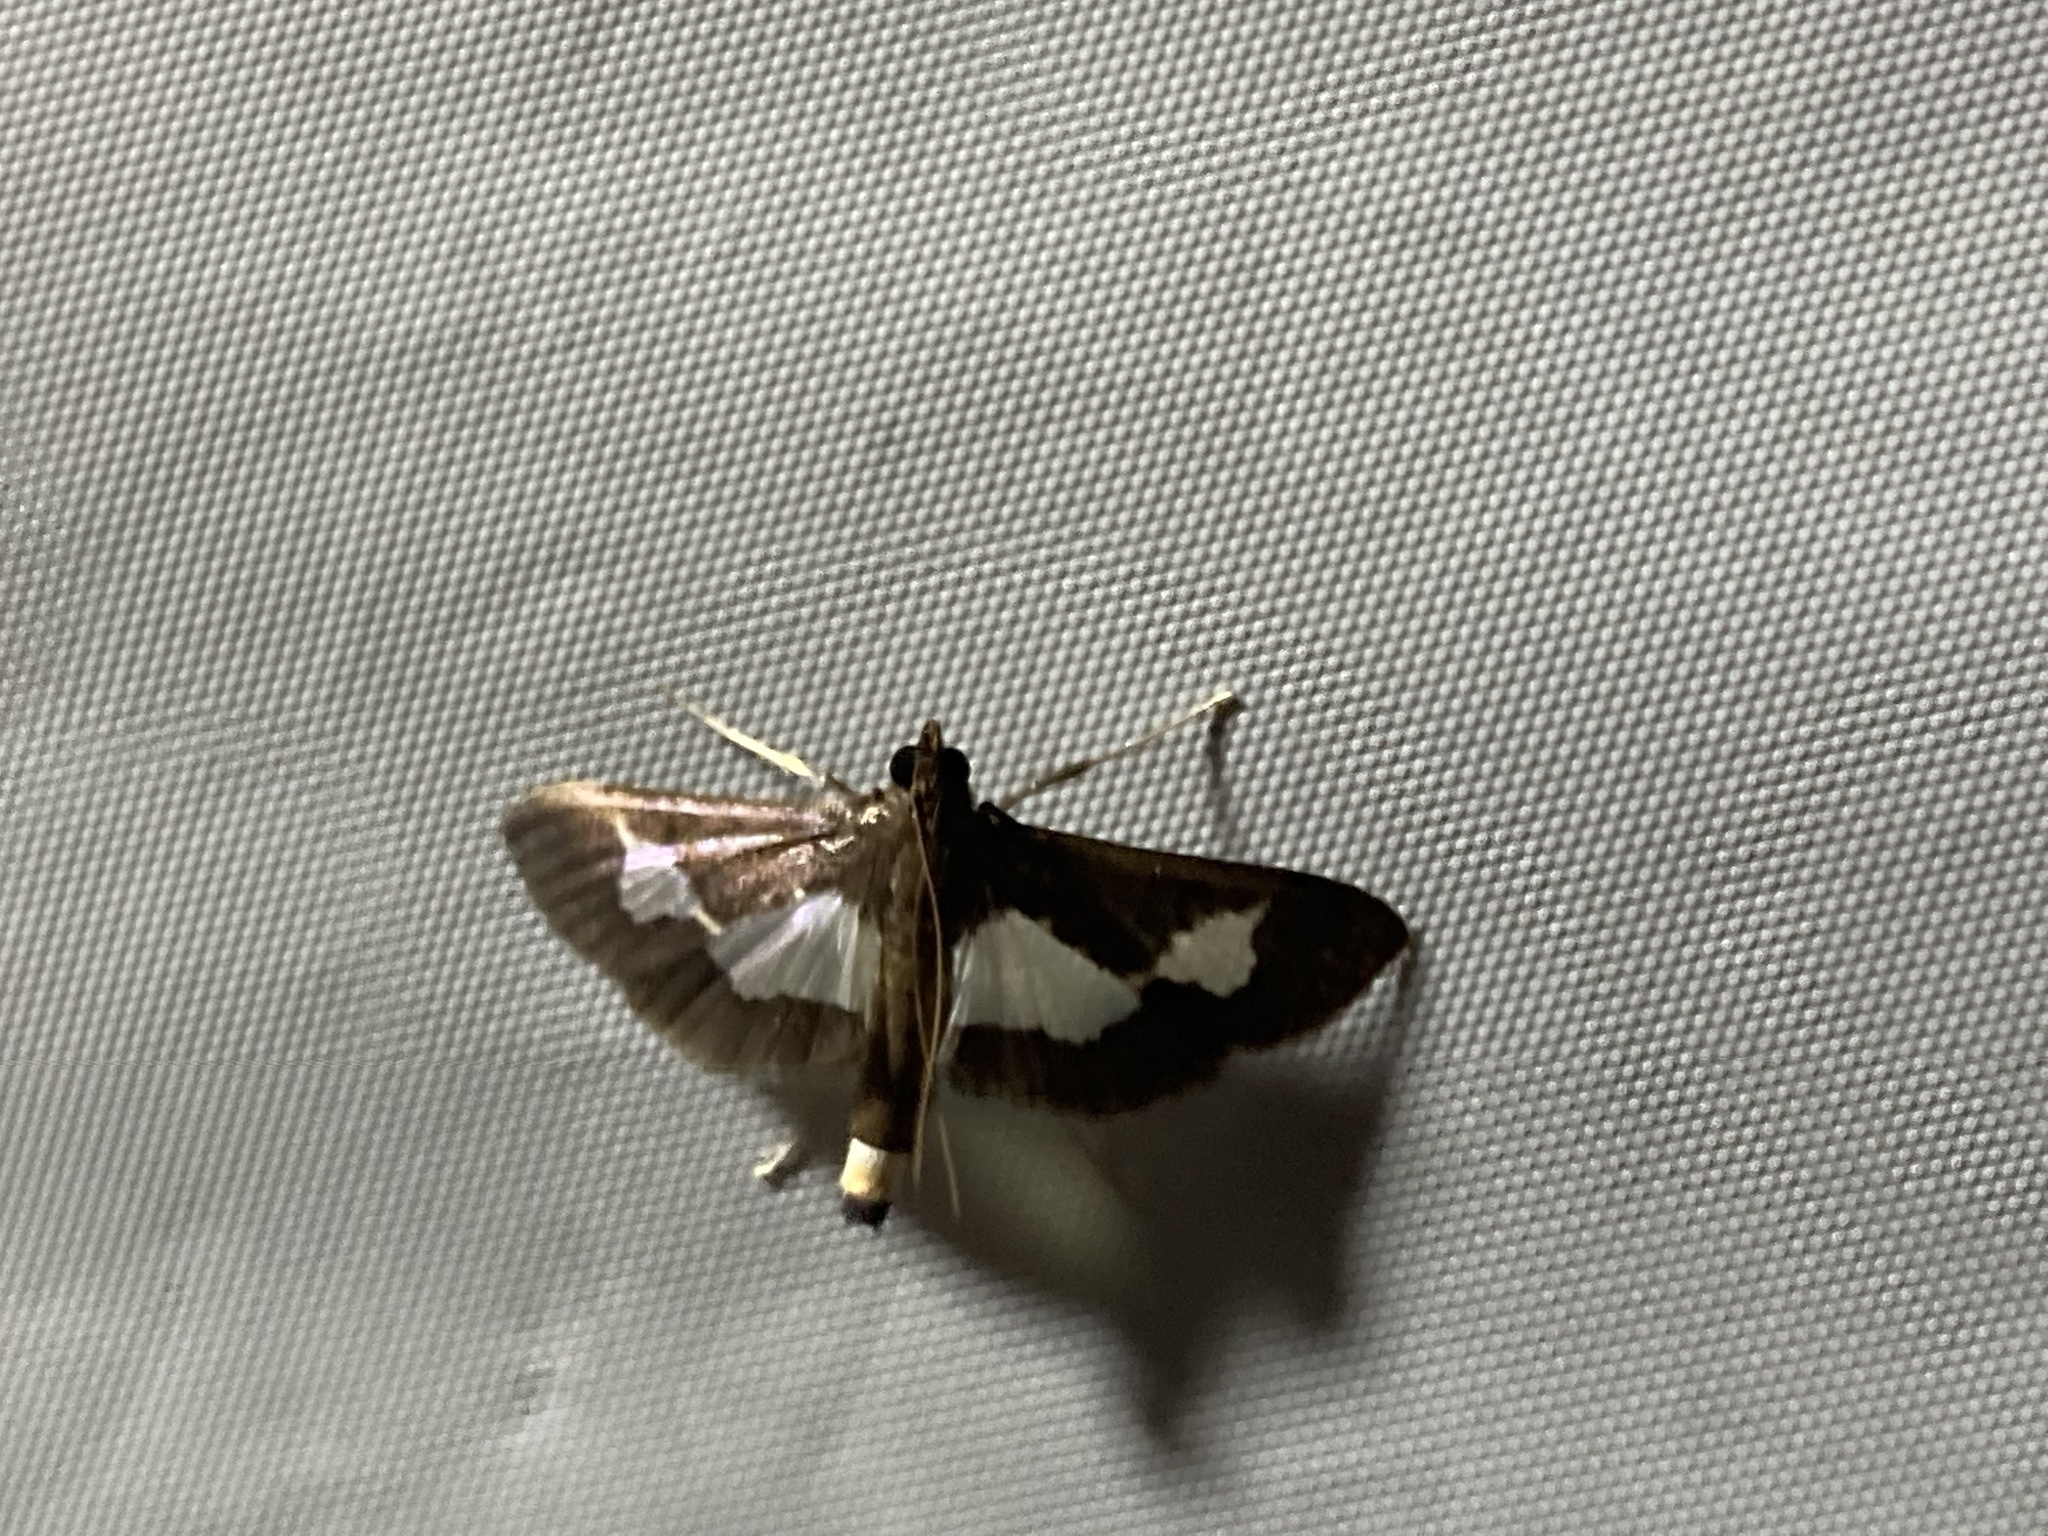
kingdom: Animalia
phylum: Arthropoda
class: Insecta
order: Lepidoptera
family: Crambidae
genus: Cryptographis
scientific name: Cryptographis nitidalis
